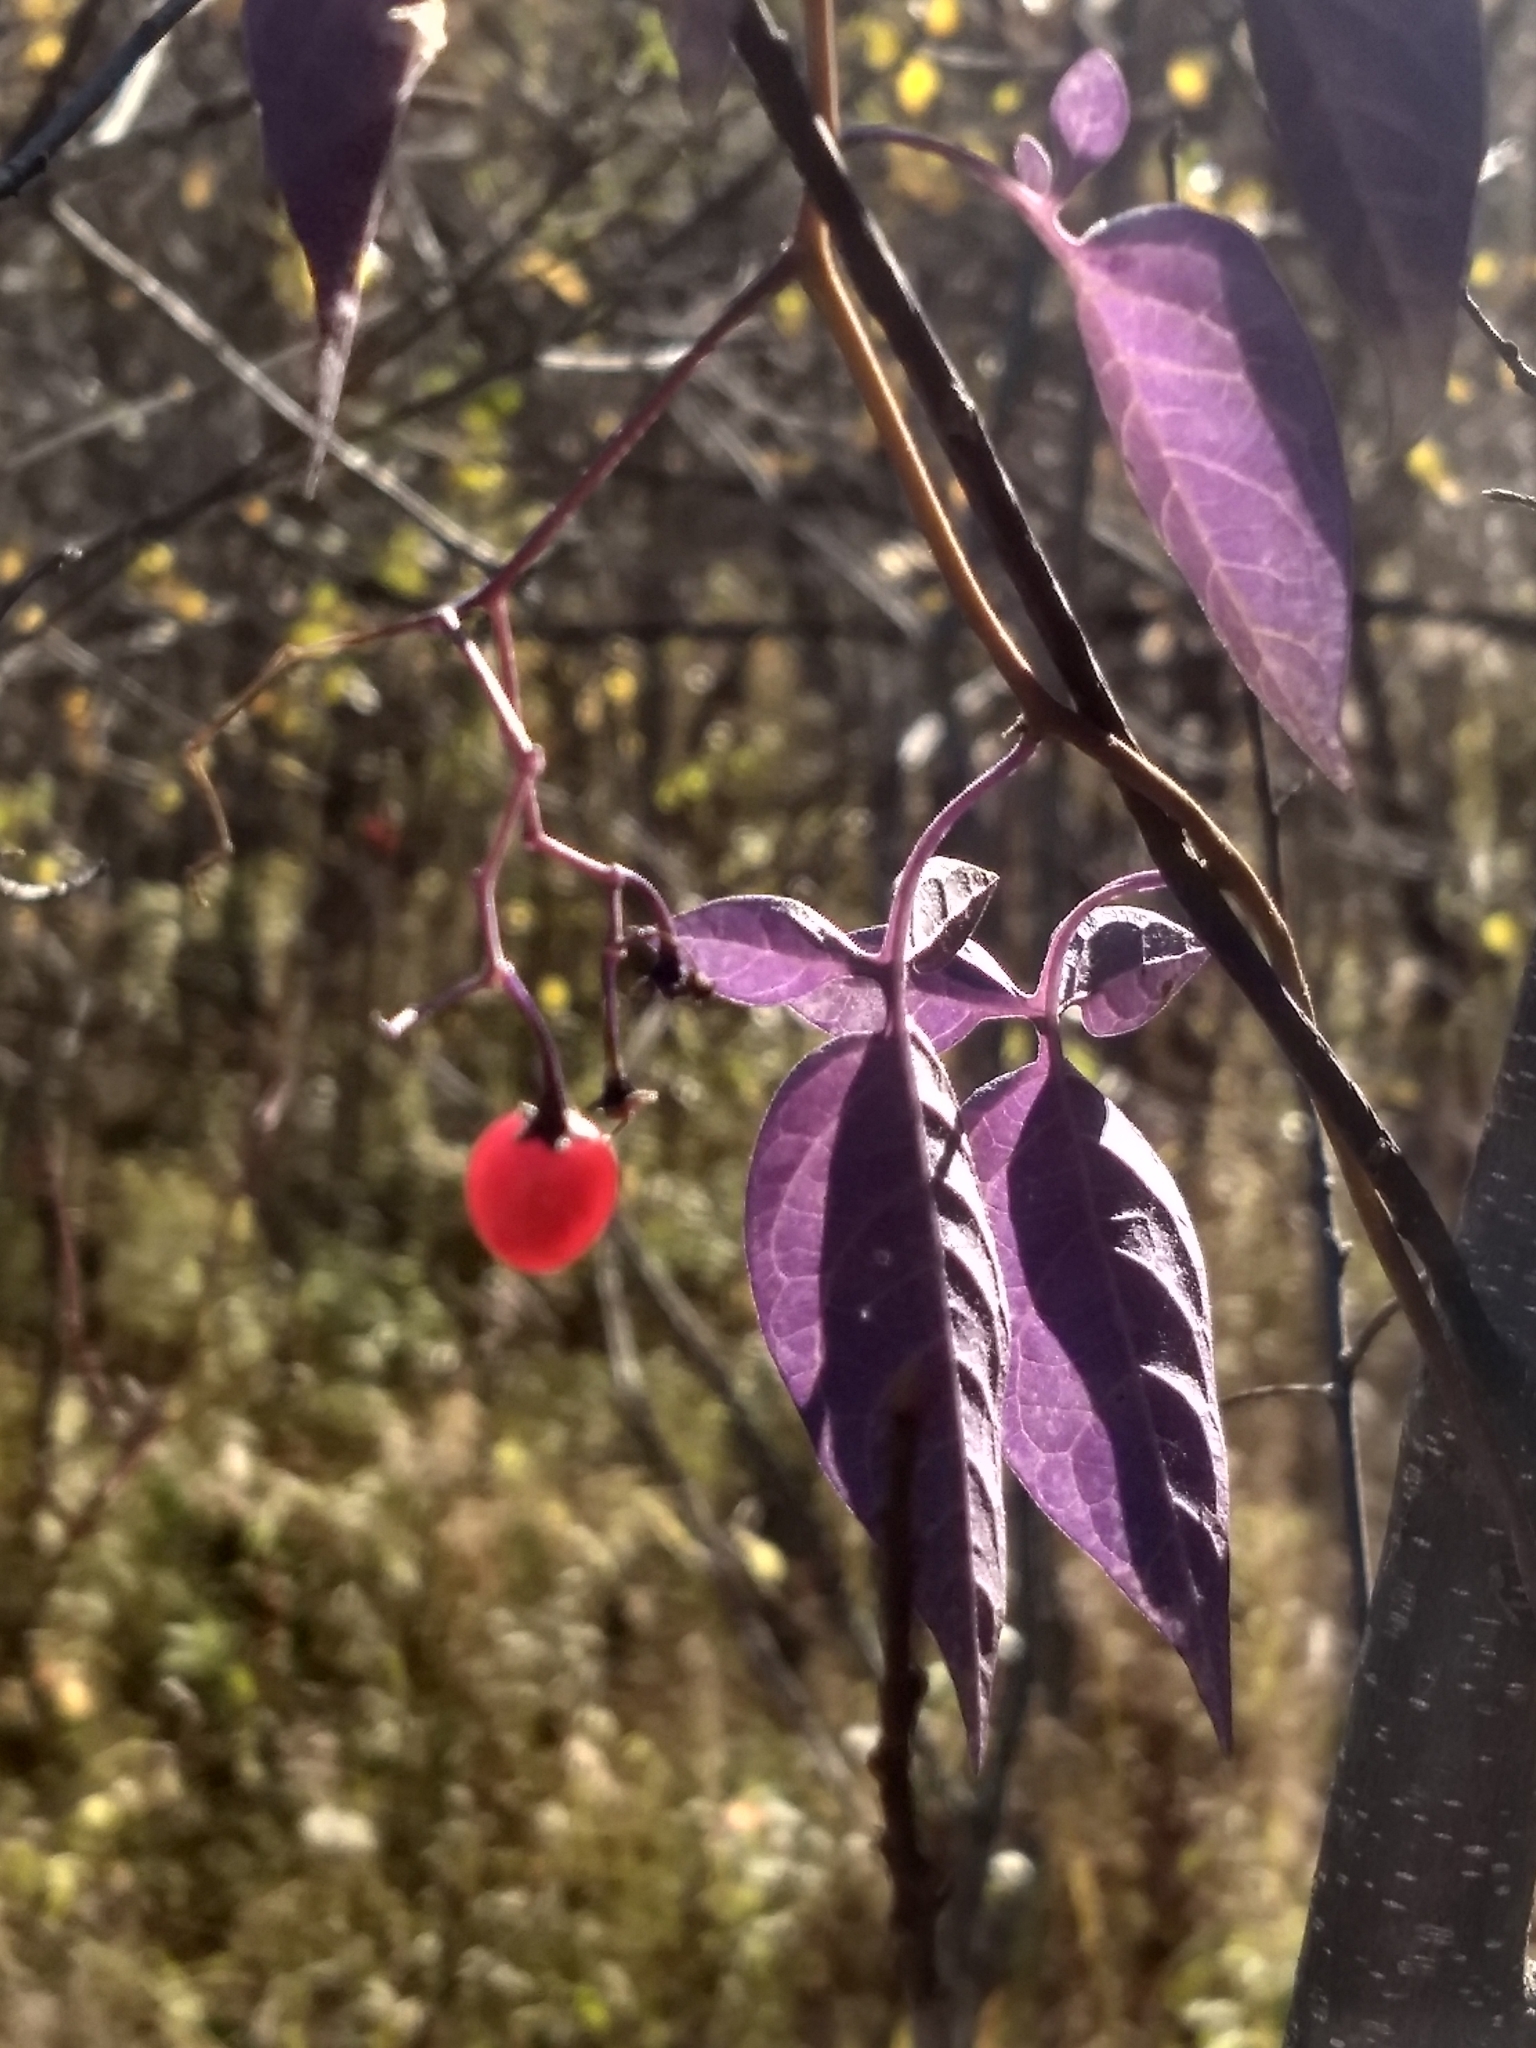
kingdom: Plantae
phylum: Tracheophyta
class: Magnoliopsida
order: Solanales
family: Solanaceae
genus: Solanum
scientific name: Solanum dulcamara
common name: Climbing nightshade
